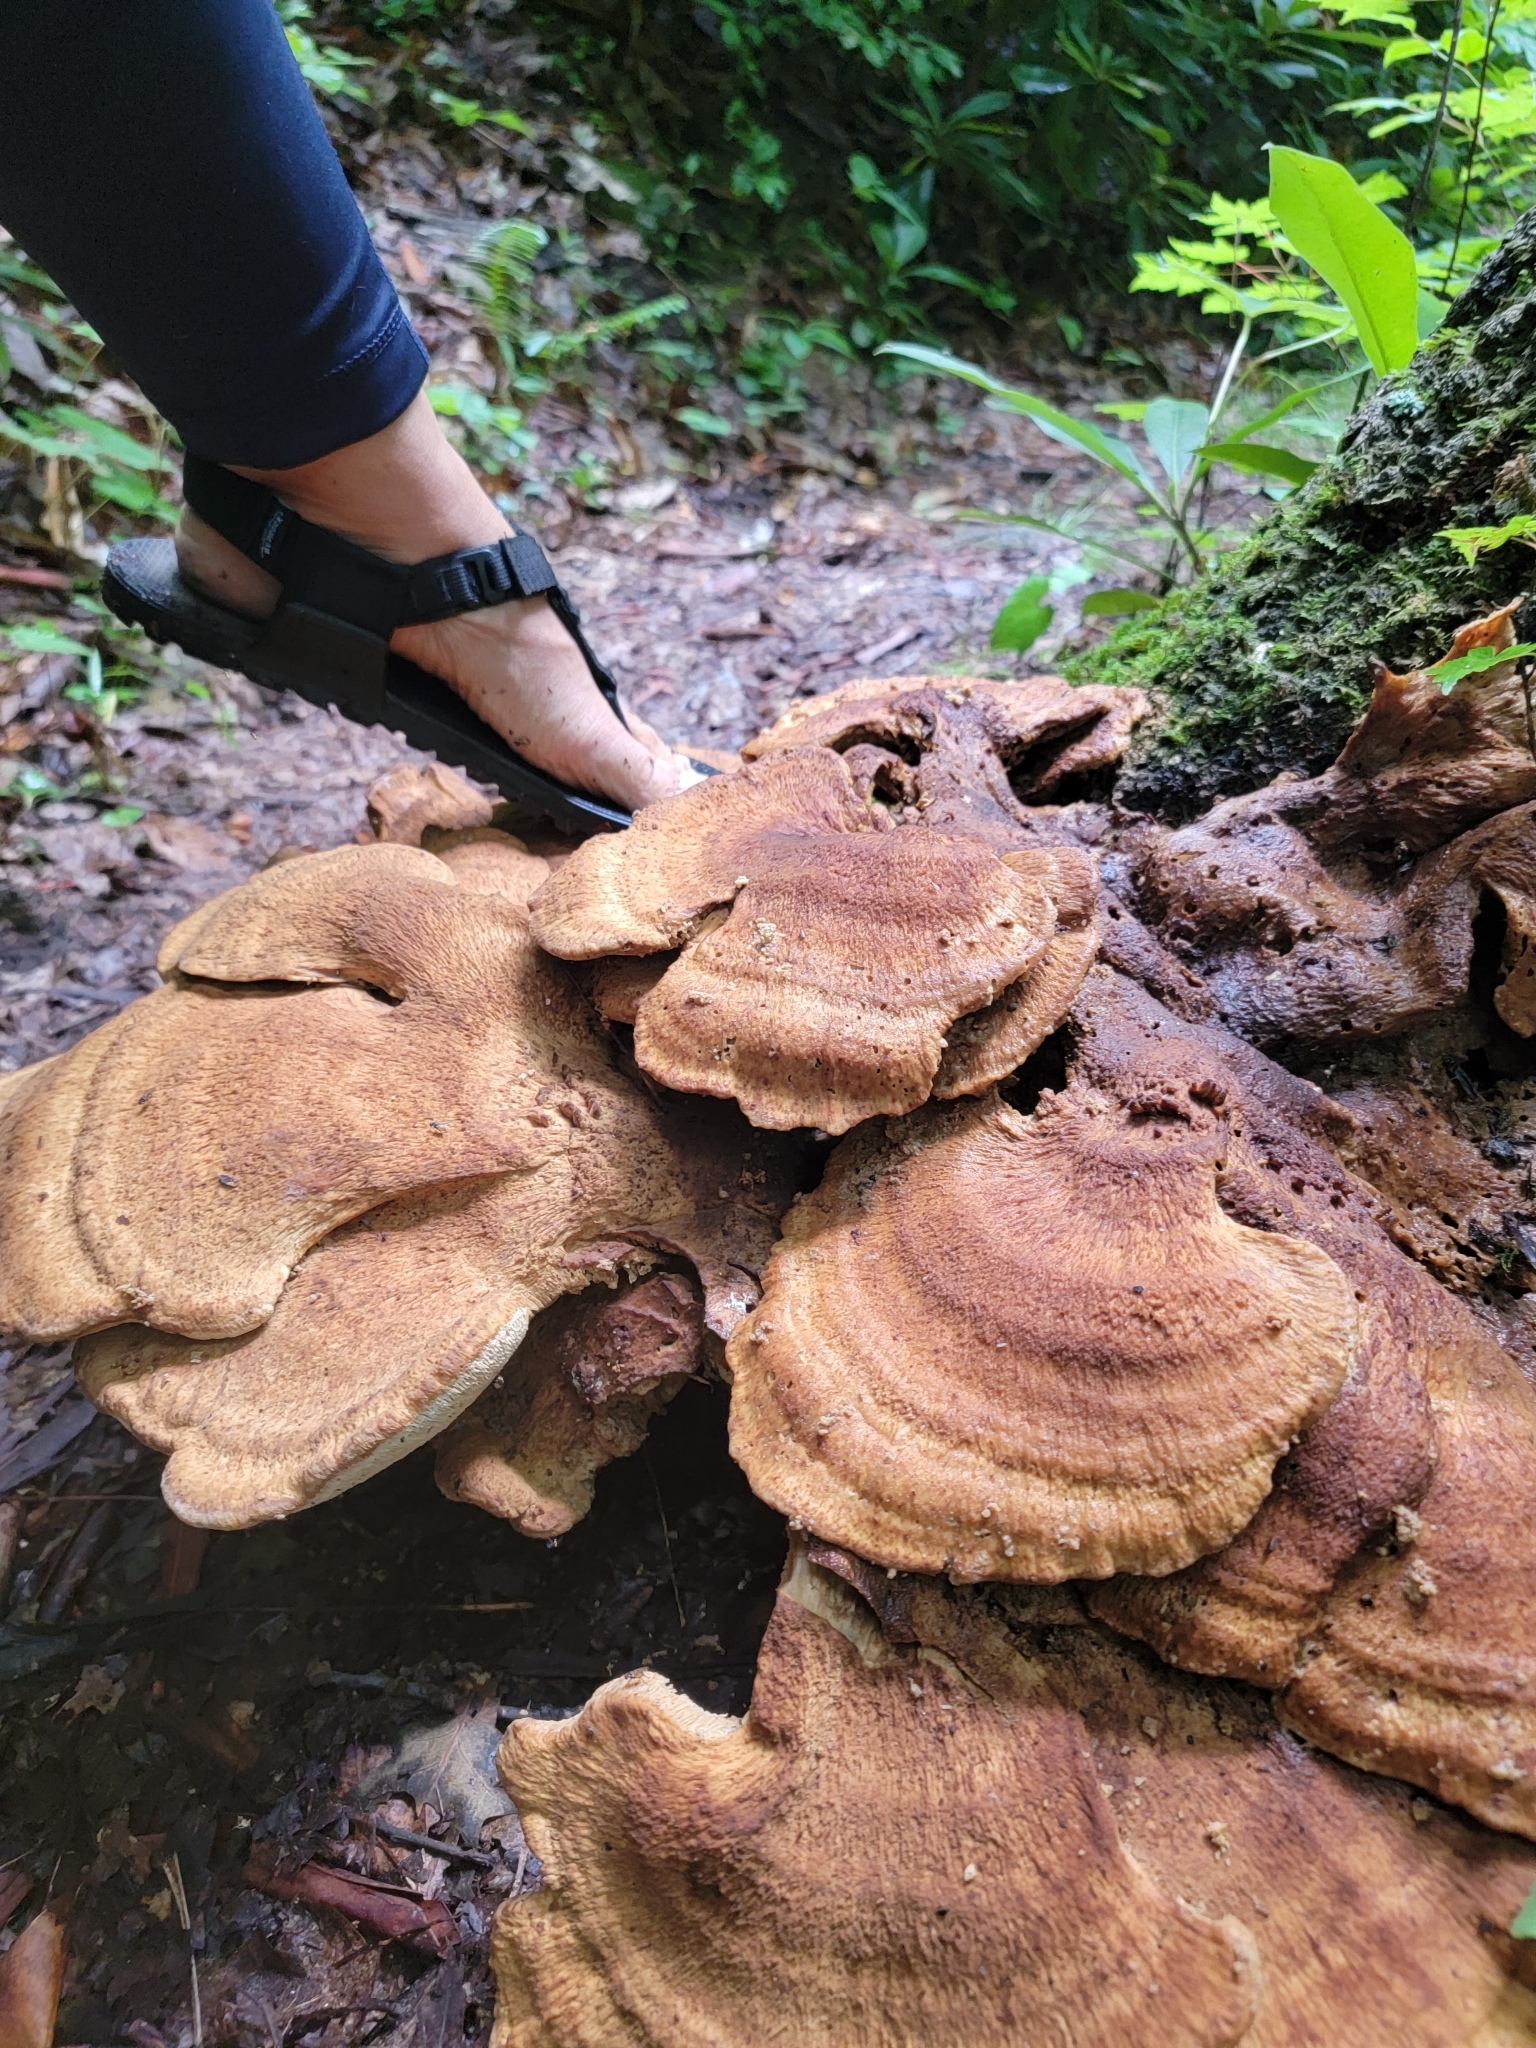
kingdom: Fungi
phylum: Basidiomycota
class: Agaricomycetes
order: Russulales
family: Bondarzewiaceae
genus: Bondarzewia
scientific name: Bondarzewia berkeleyi
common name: Berkeley's polypore
